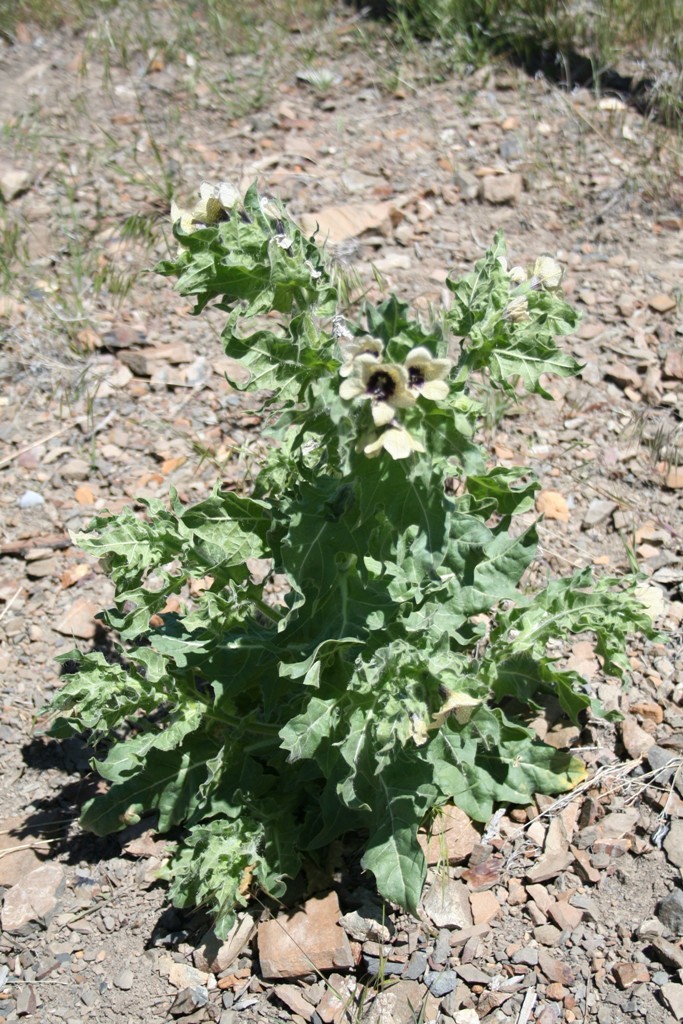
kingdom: Plantae
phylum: Tracheophyta
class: Magnoliopsida
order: Solanales
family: Solanaceae
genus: Hyoscyamus
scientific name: Hyoscyamus niger
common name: Henbane
